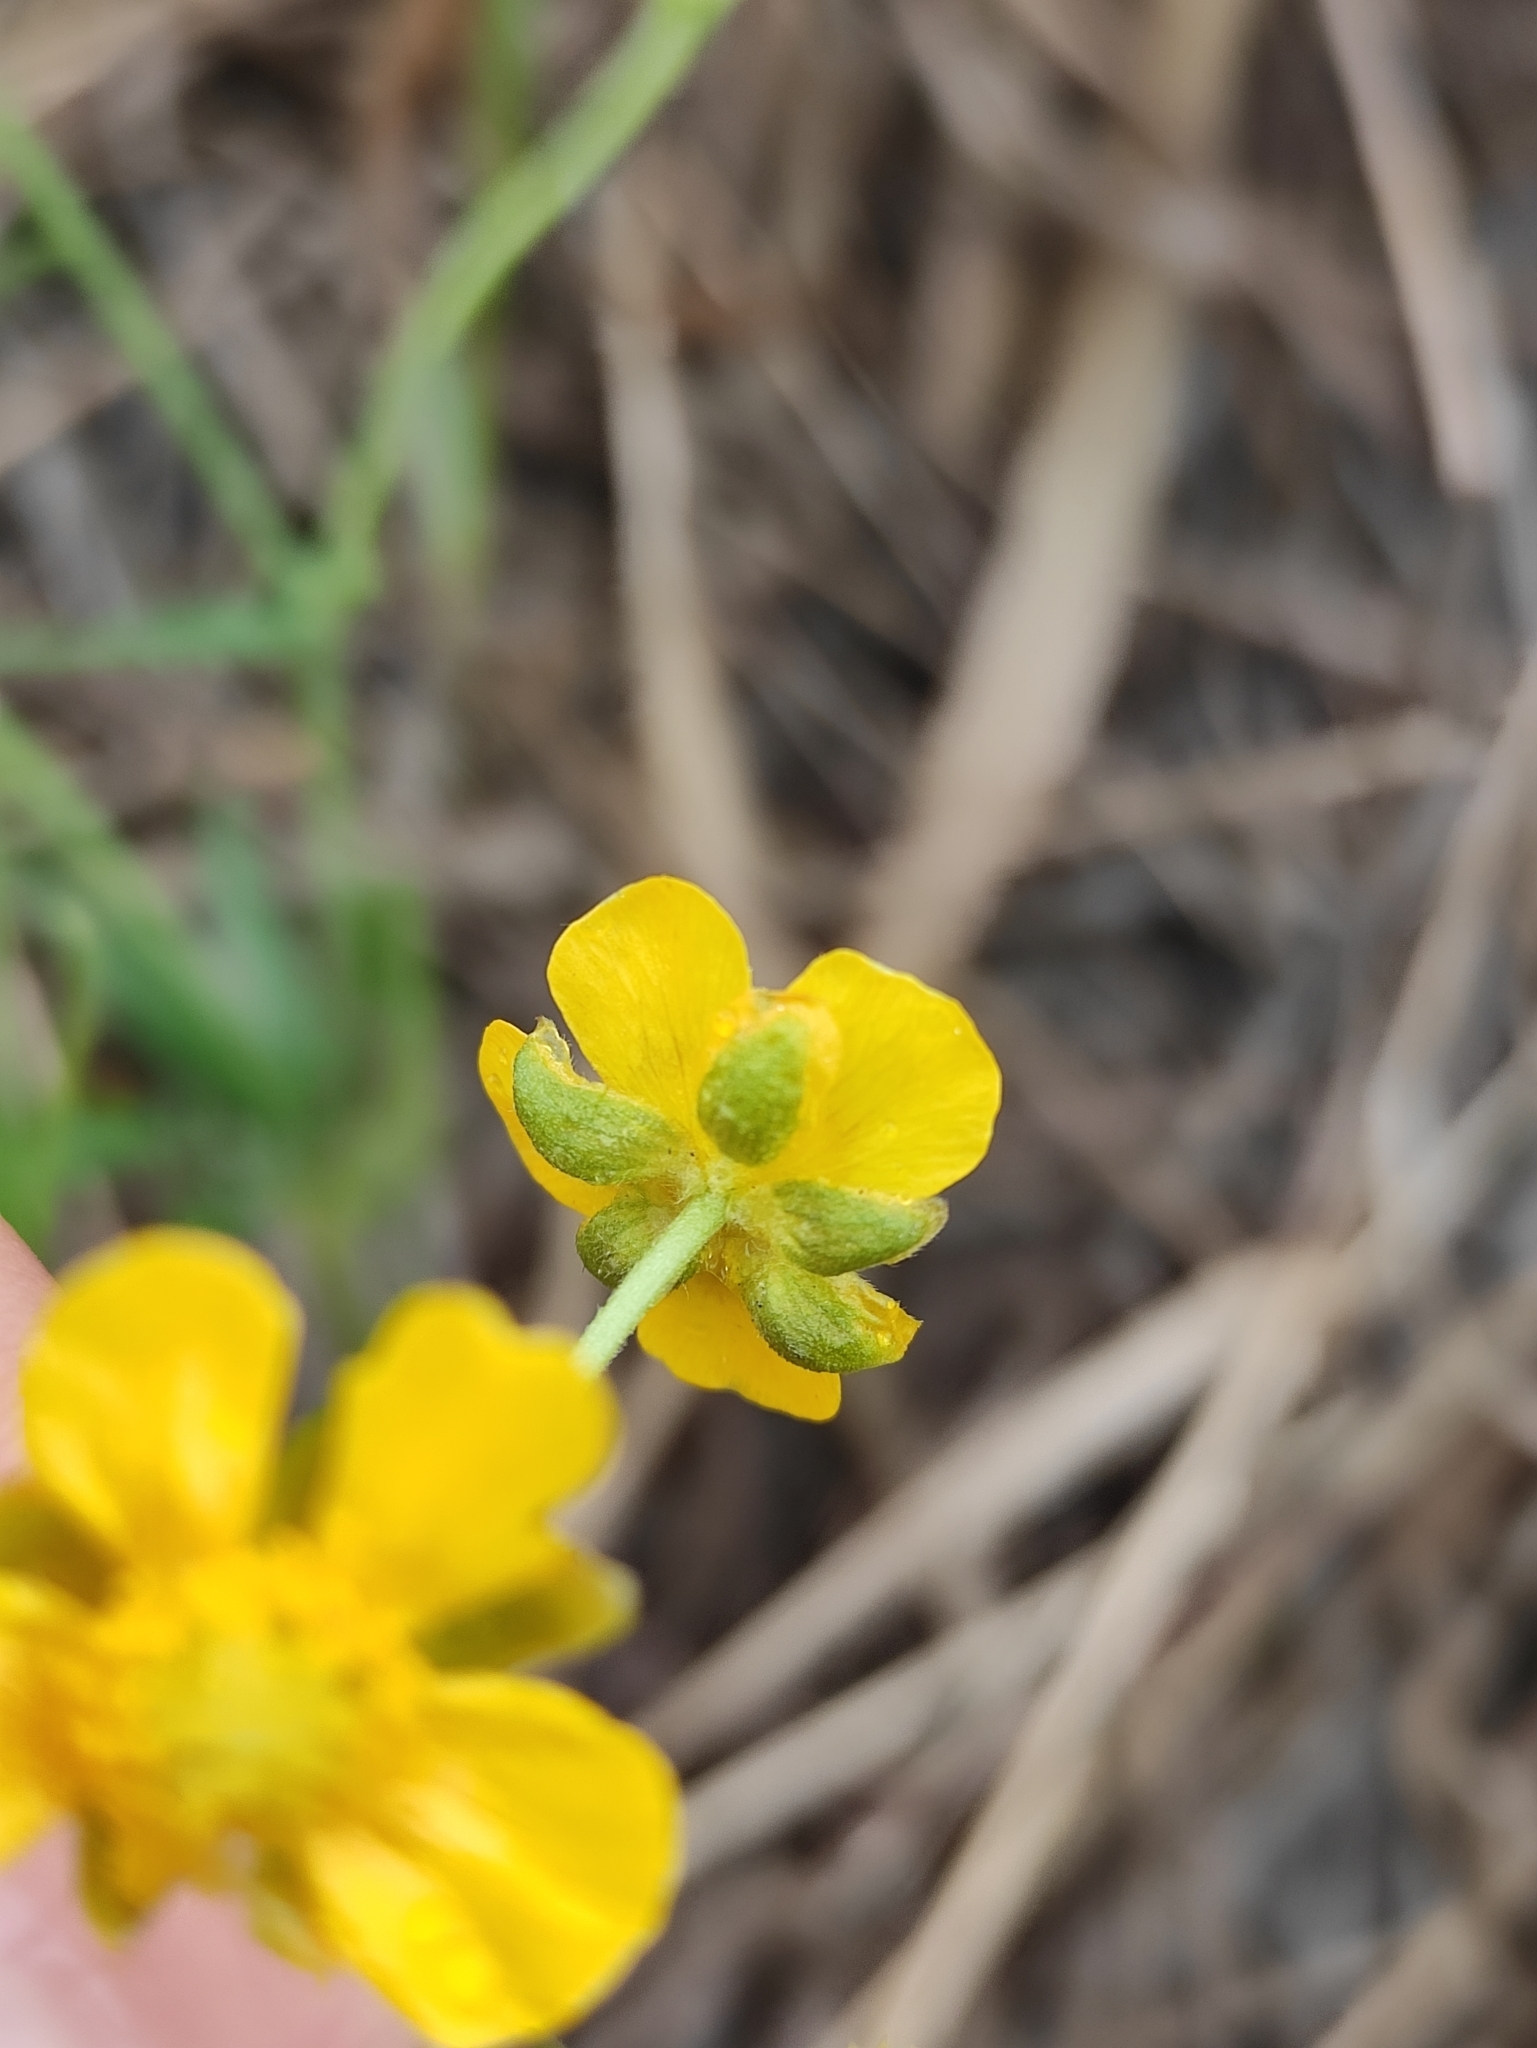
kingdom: Plantae
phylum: Tracheophyta
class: Magnoliopsida
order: Ranunculales
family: Ranunculaceae
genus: Ranunculus
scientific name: Ranunculus monophyllus
